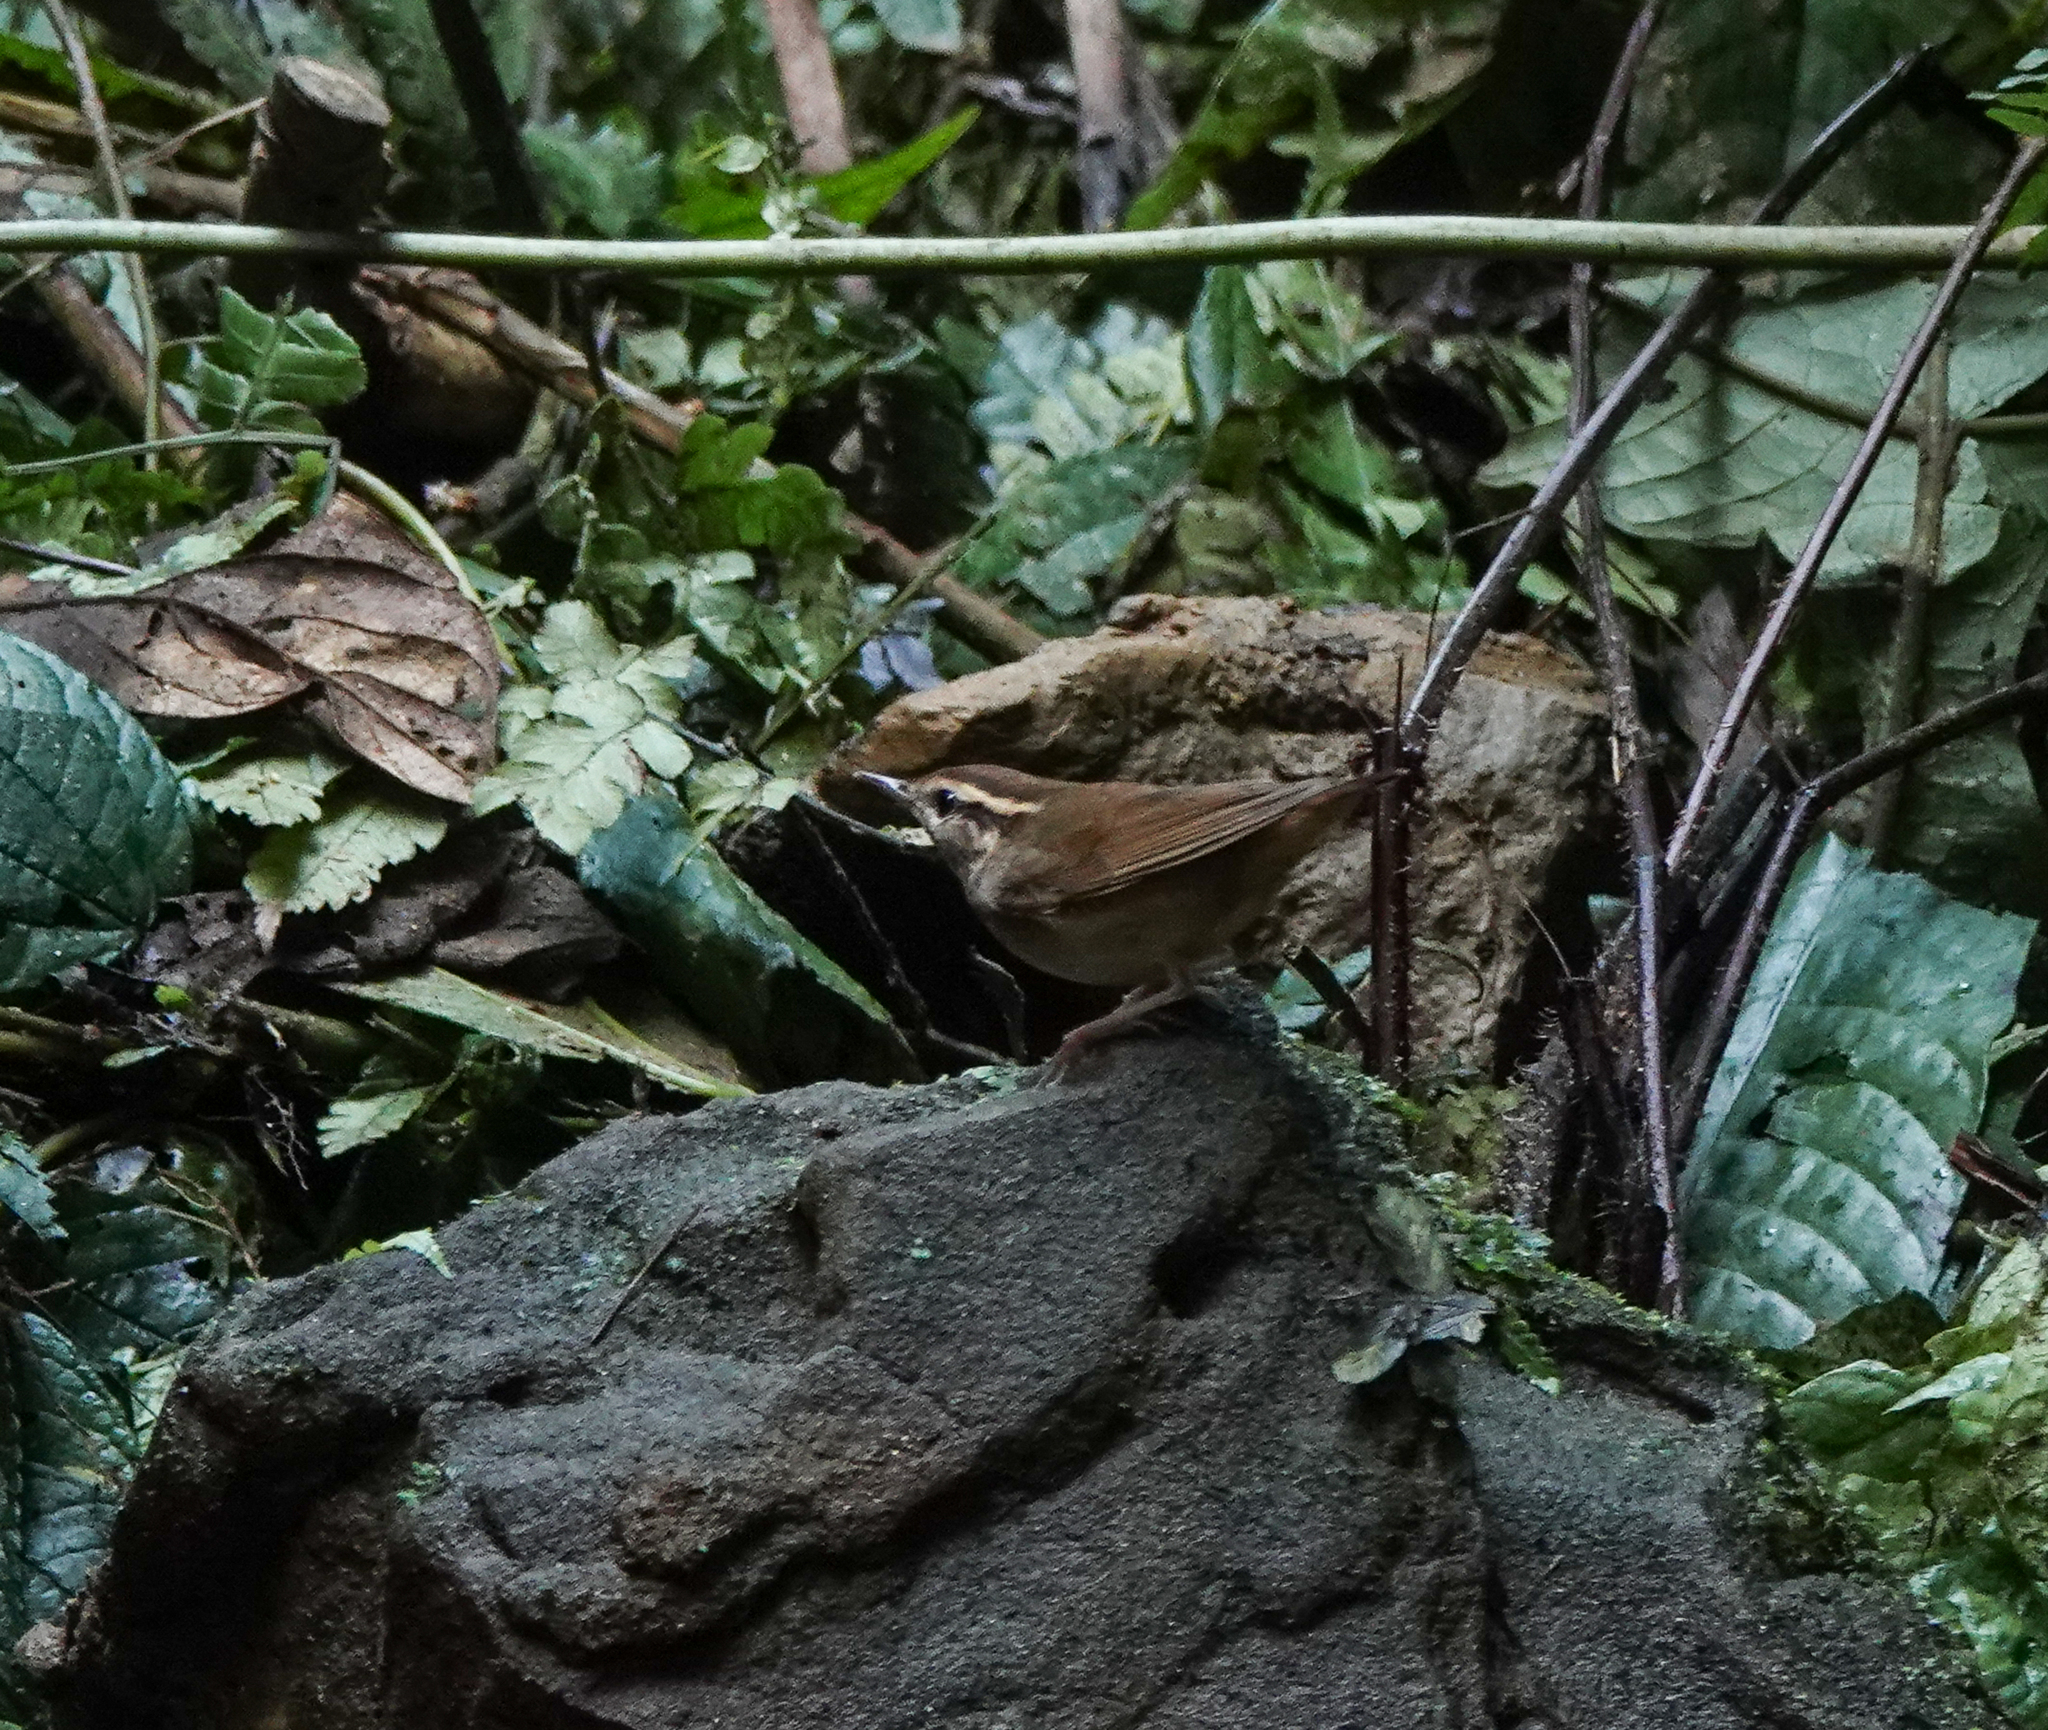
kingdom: Animalia
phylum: Chordata
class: Aves
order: Passeriformes
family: Cettiidae
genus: Urosphena
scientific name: Urosphena squameiceps
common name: Asian stubtail
